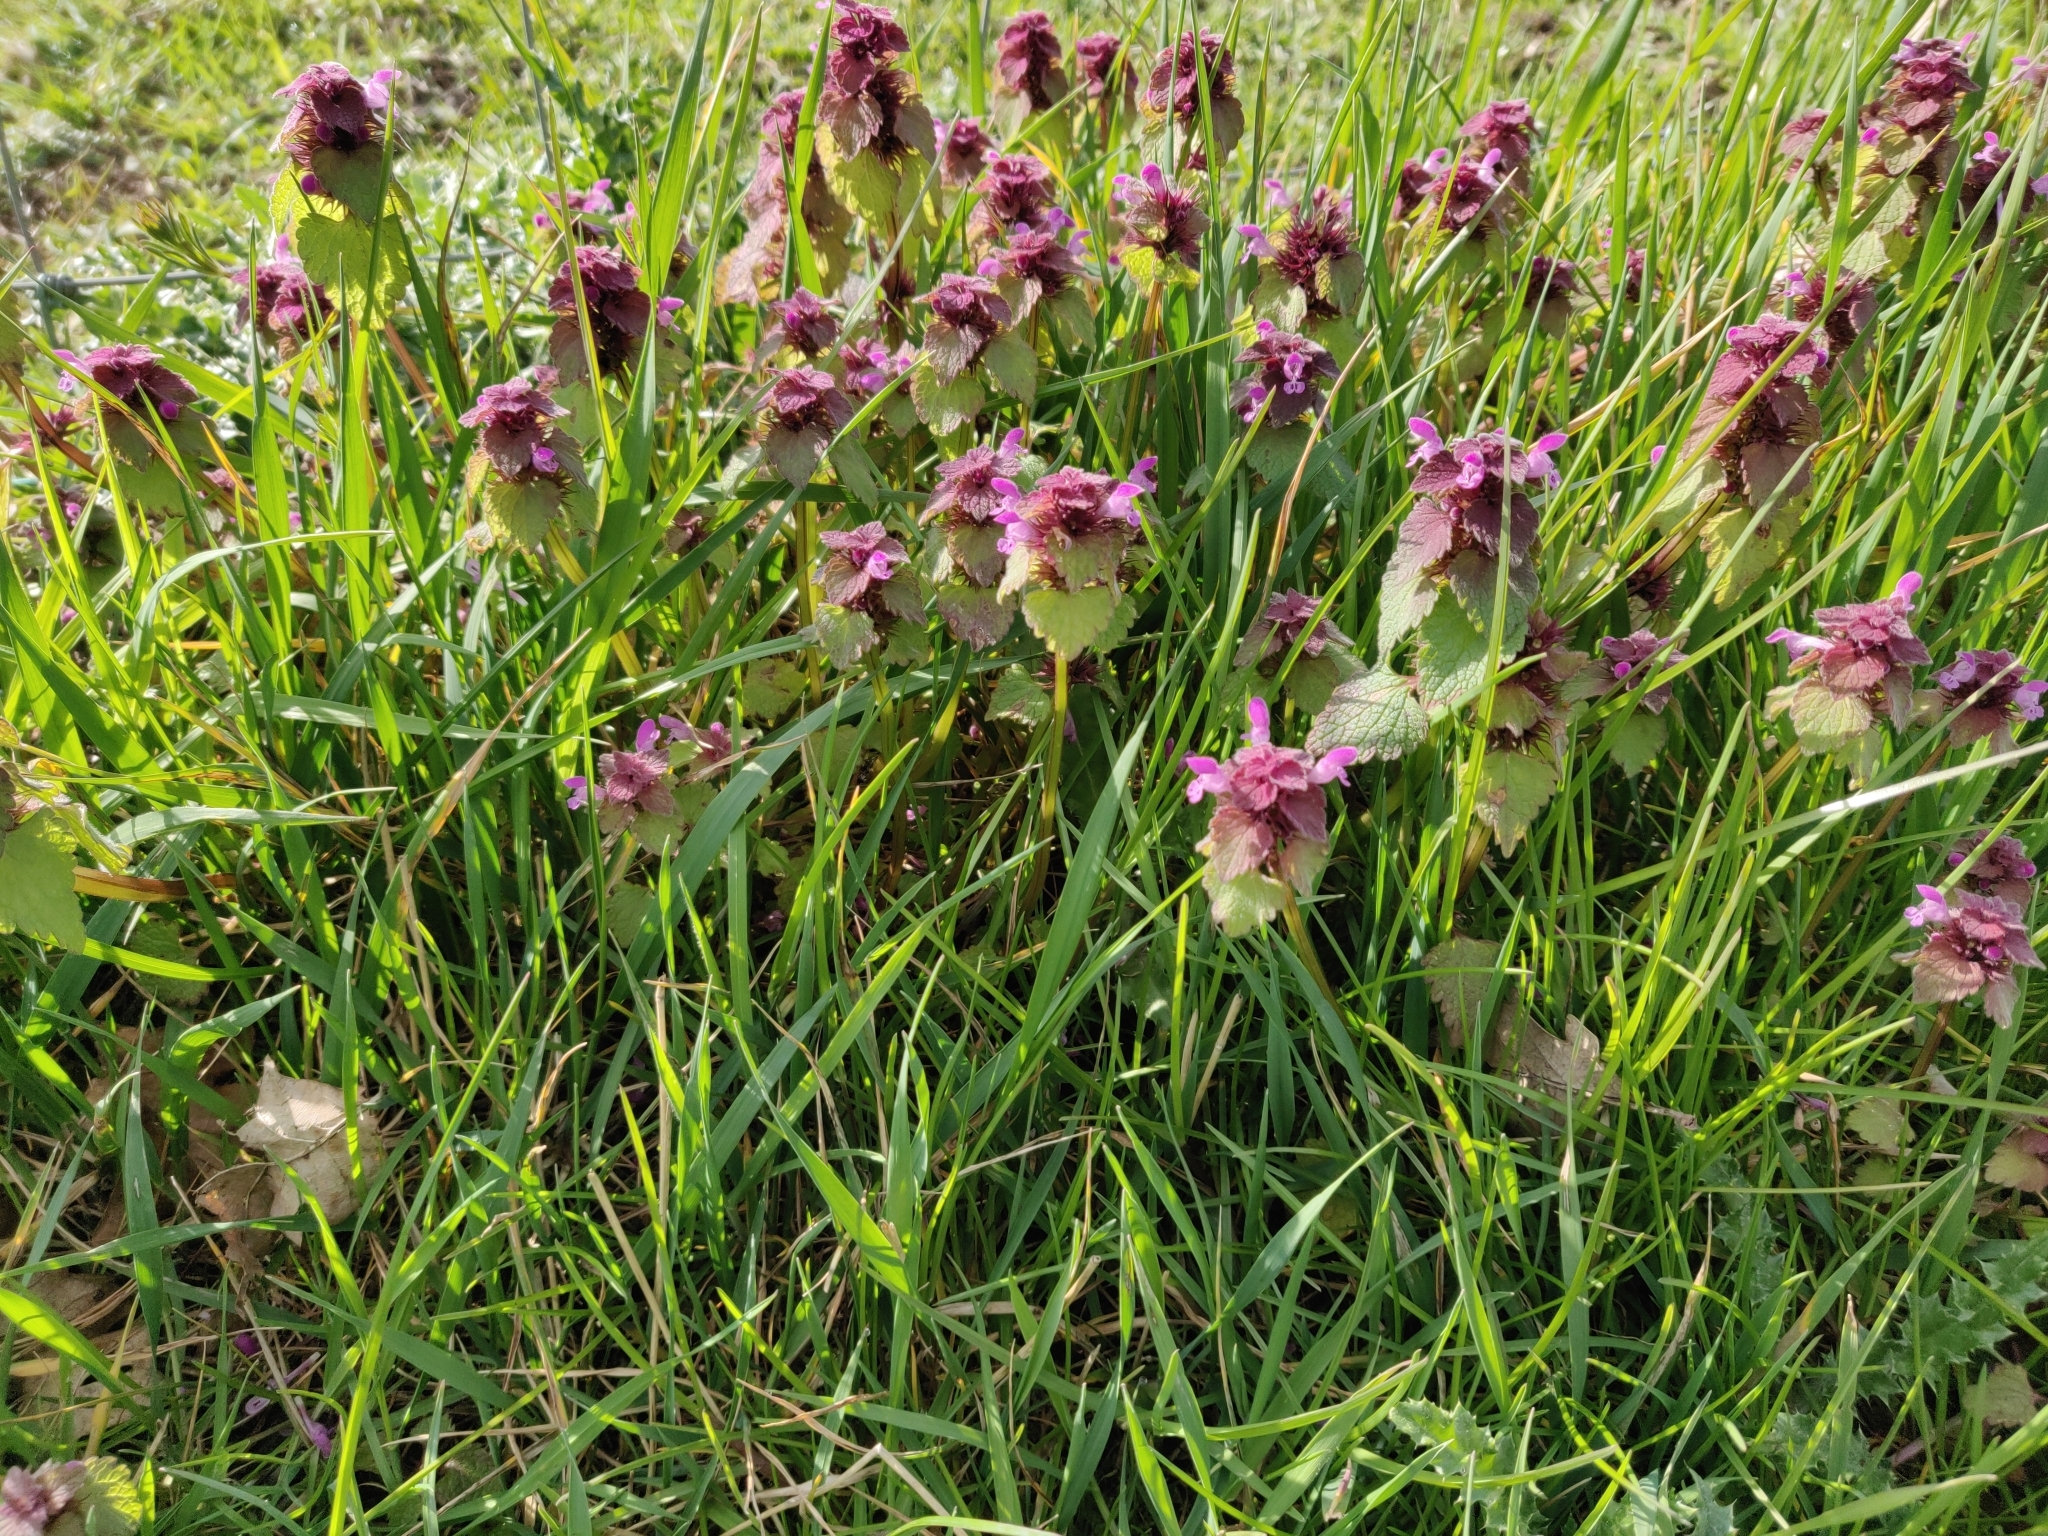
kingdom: Plantae
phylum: Tracheophyta
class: Magnoliopsida
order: Lamiales
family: Lamiaceae
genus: Lamium
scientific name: Lamium purpureum
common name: Red dead-nettle
